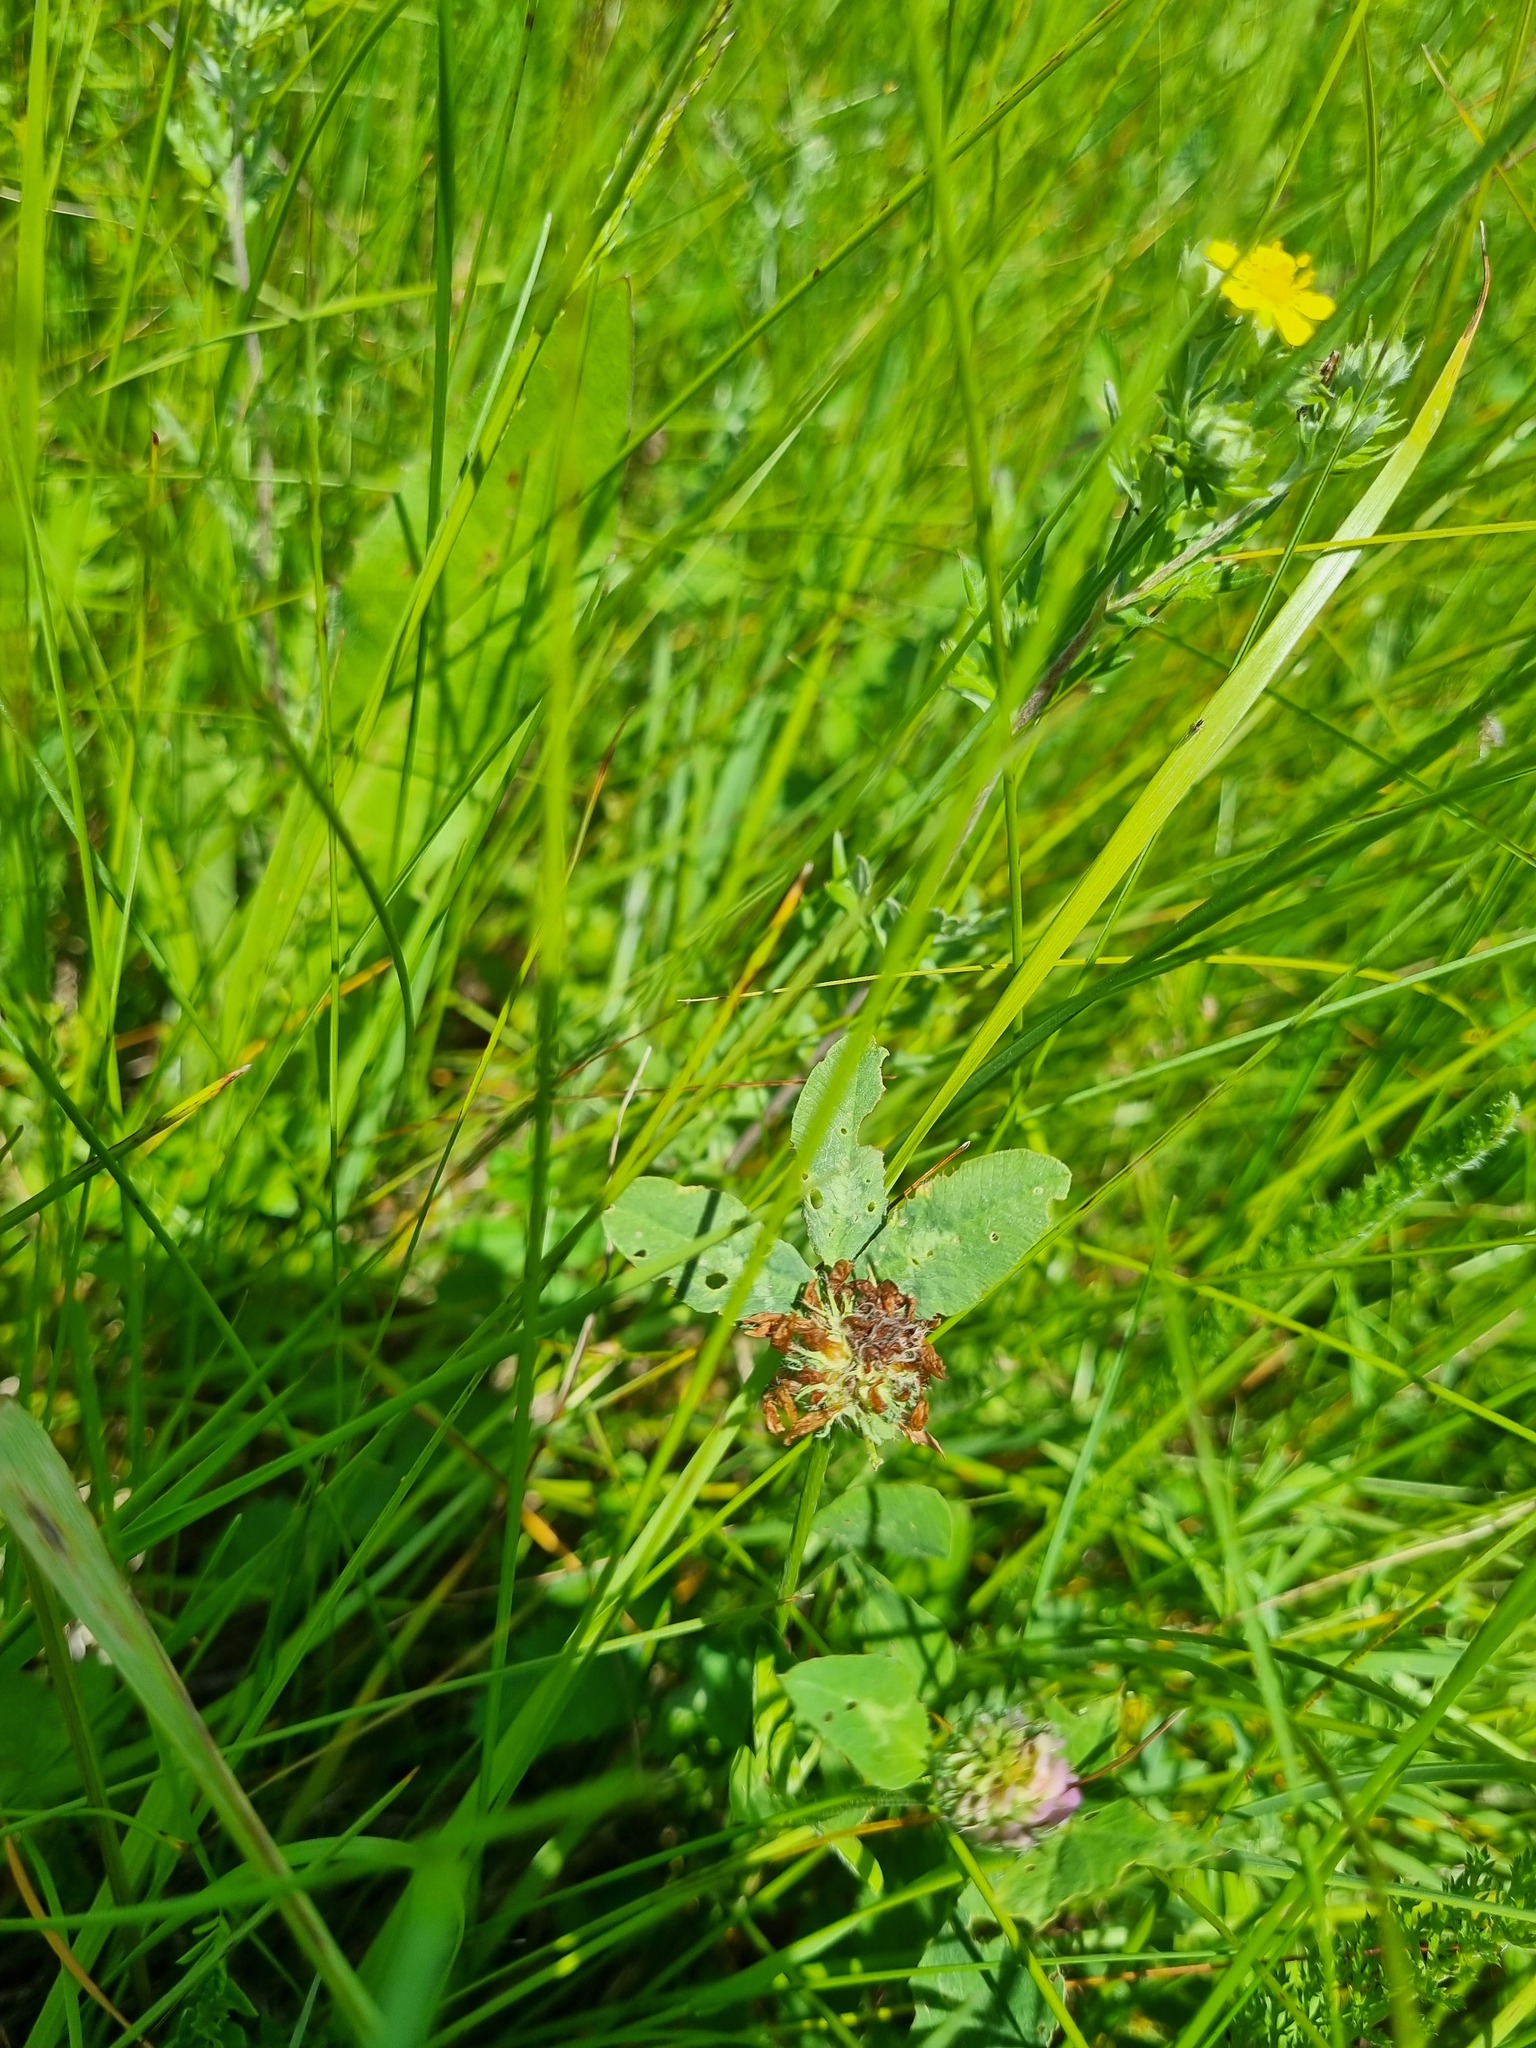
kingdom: Plantae
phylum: Tracheophyta
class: Magnoliopsida
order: Fabales
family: Fabaceae
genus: Trifolium
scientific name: Trifolium pratense
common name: Red clover
